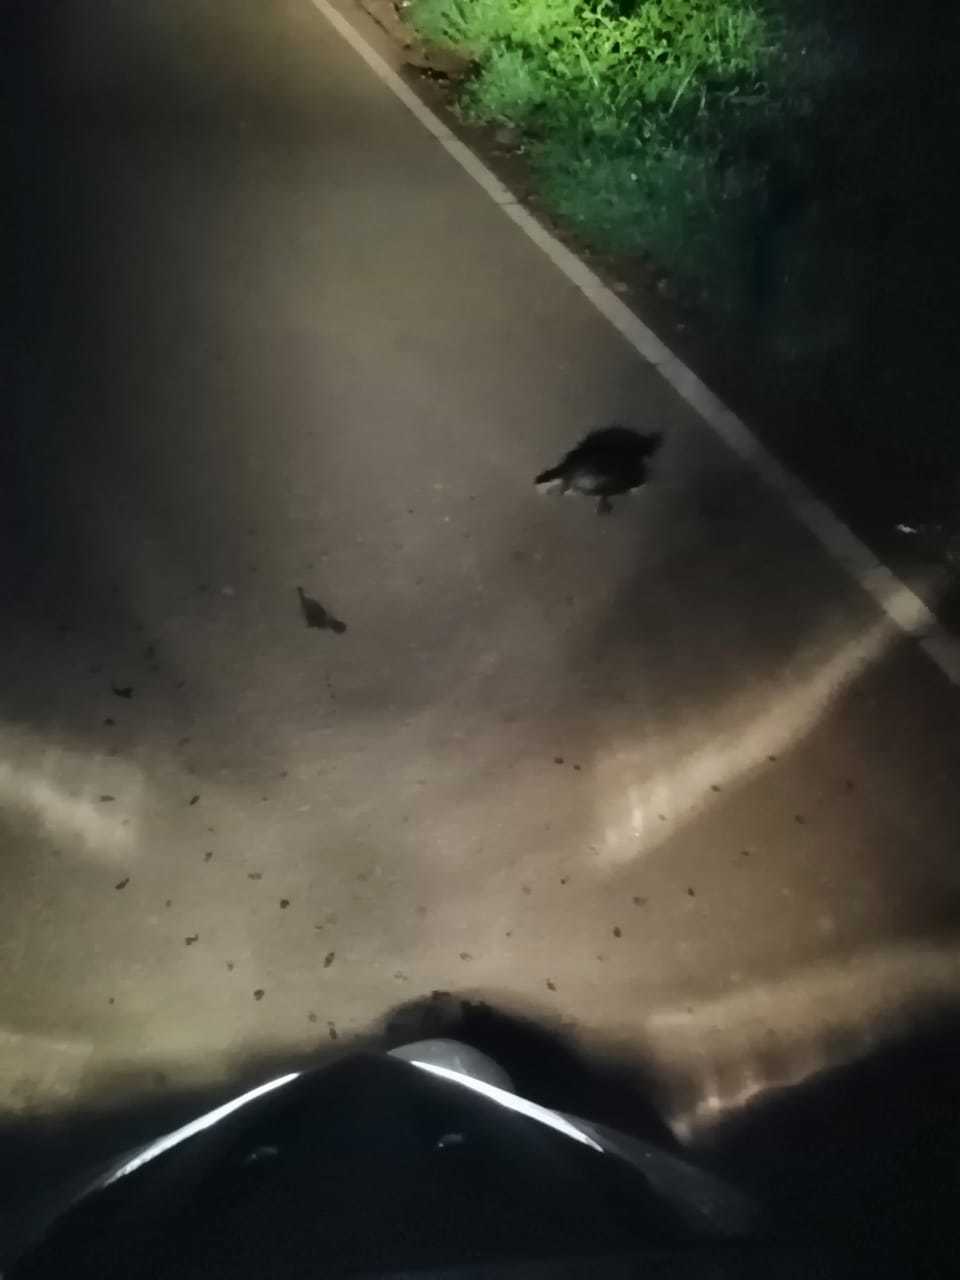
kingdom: Animalia
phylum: Chordata
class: Testudines
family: Geoemydidae
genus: Melanochelys
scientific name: Melanochelys trijuga
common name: Indian black turtle
